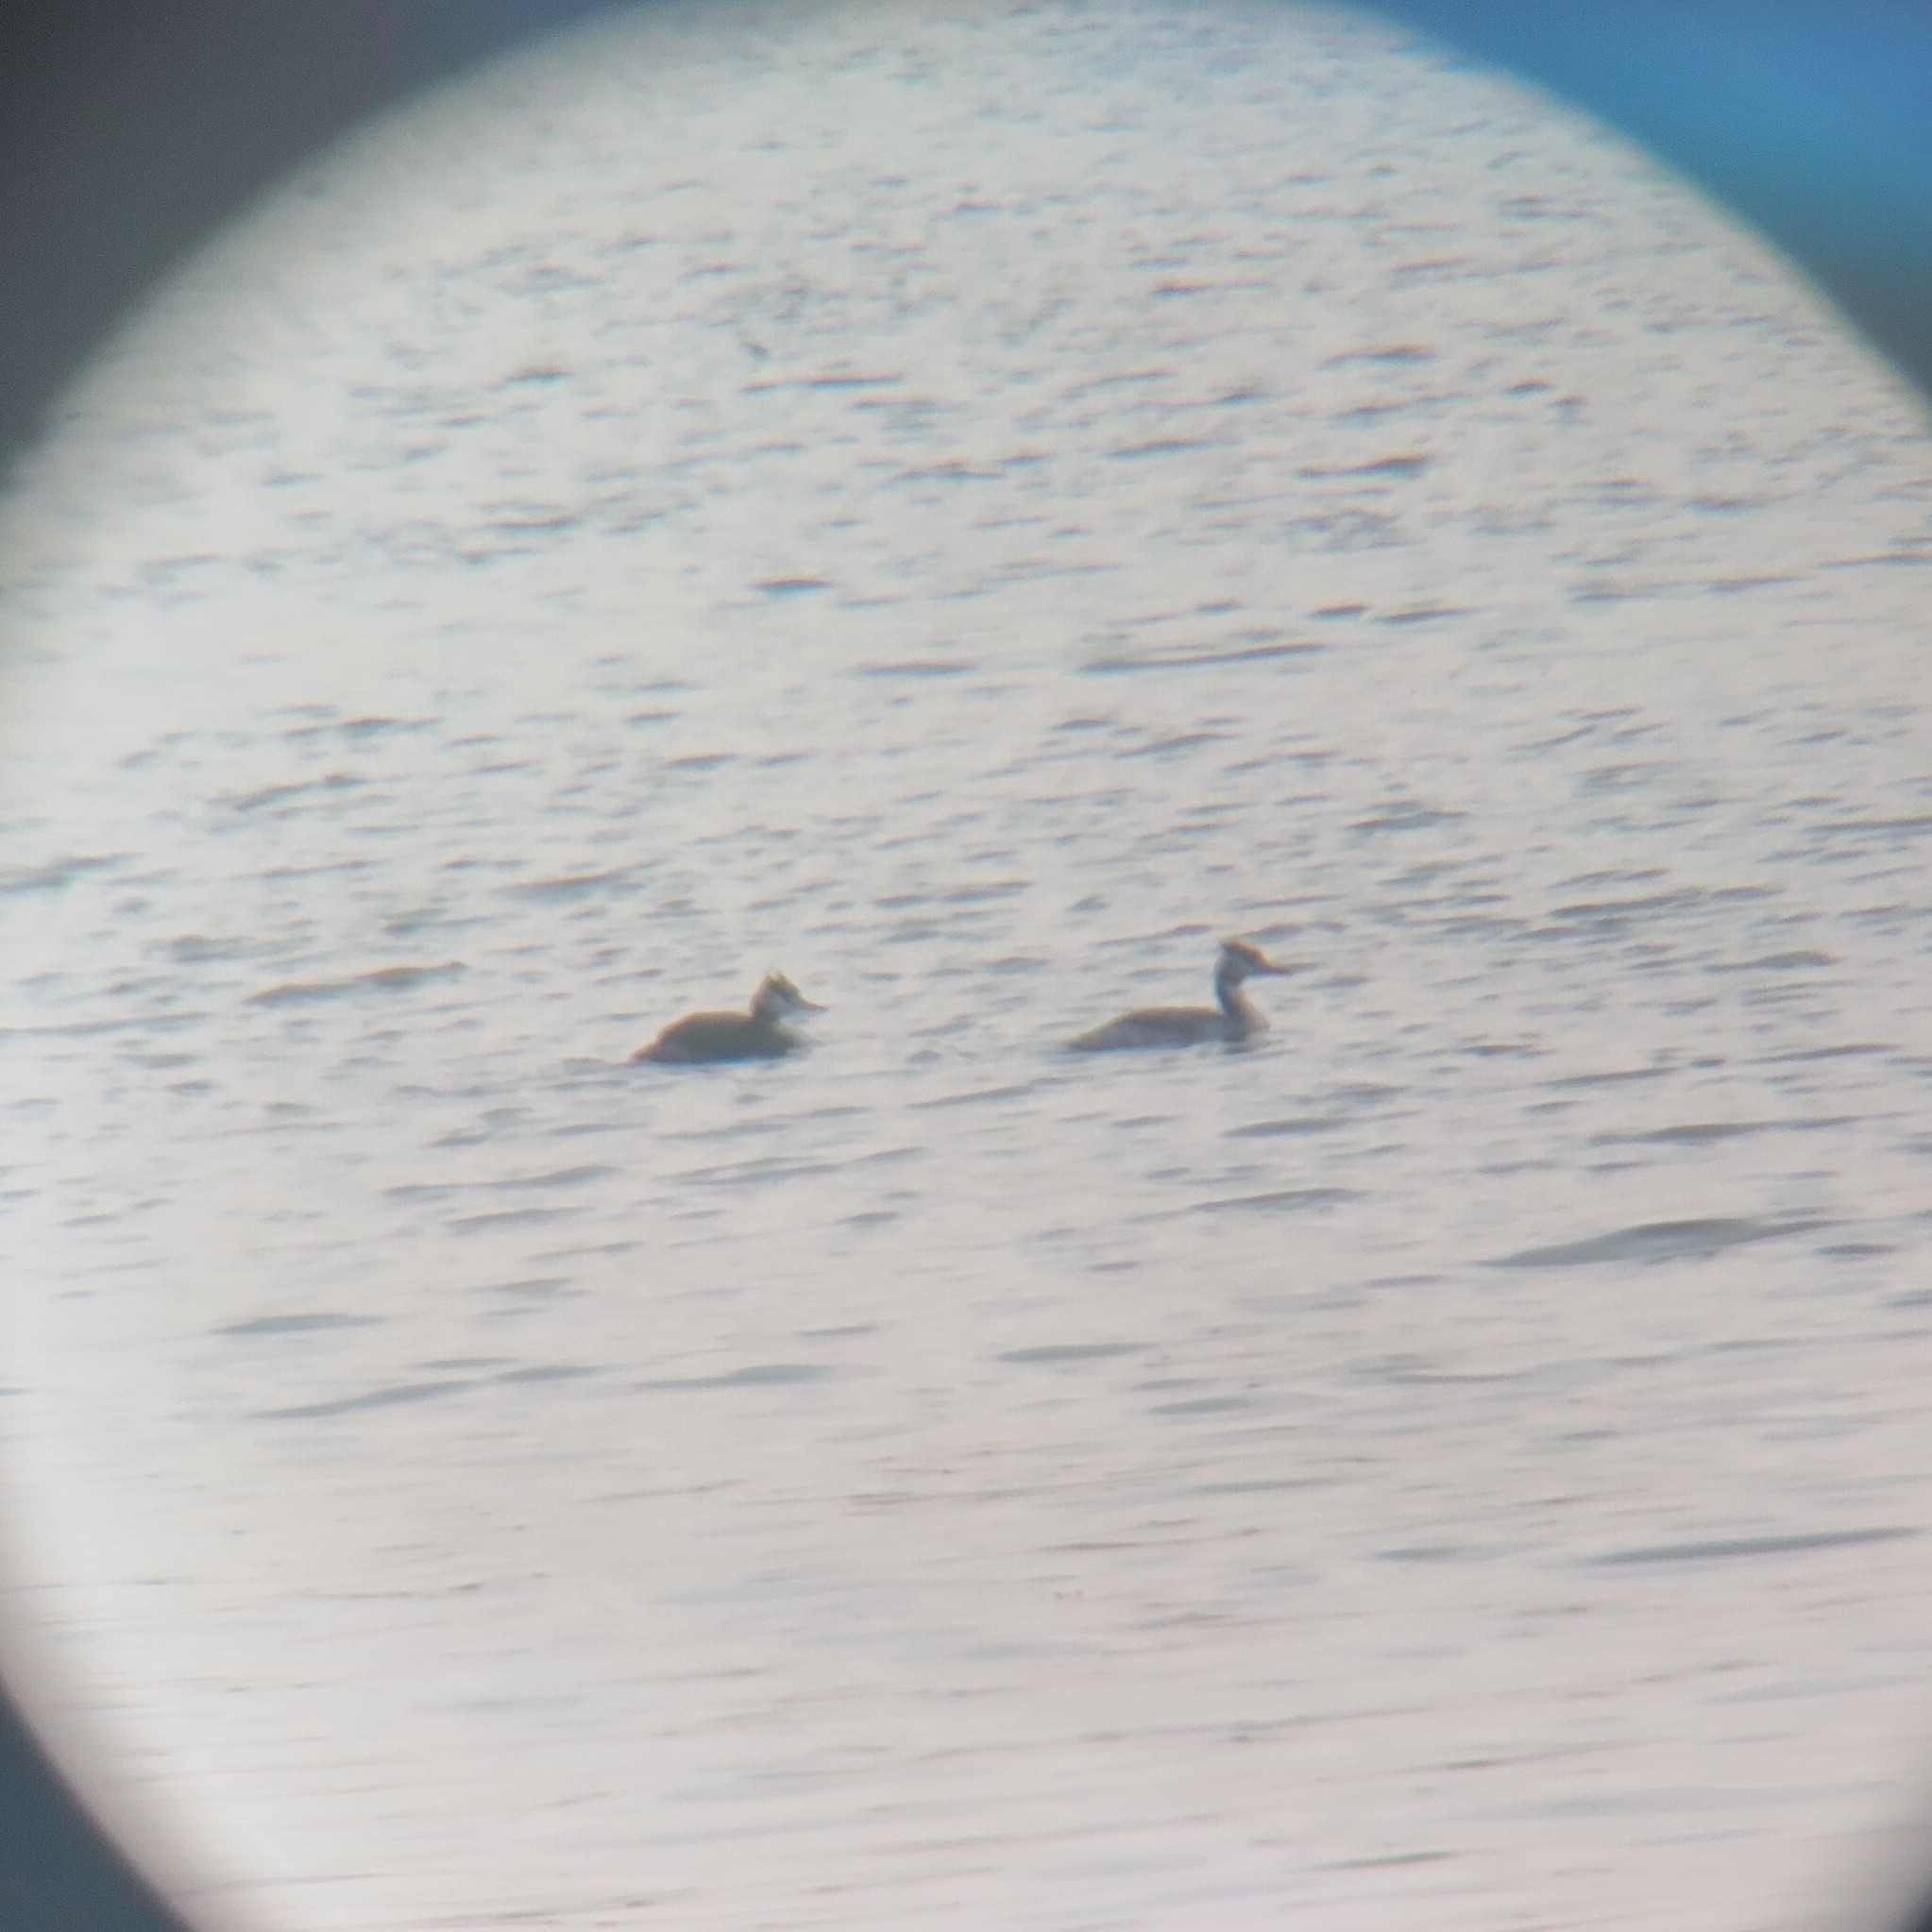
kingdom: Animalia
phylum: Chordata
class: Aves
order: Podicipediformes
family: Podicipedidae
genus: Podiceps
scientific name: Podiceps cristatus
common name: Great crested grebe
